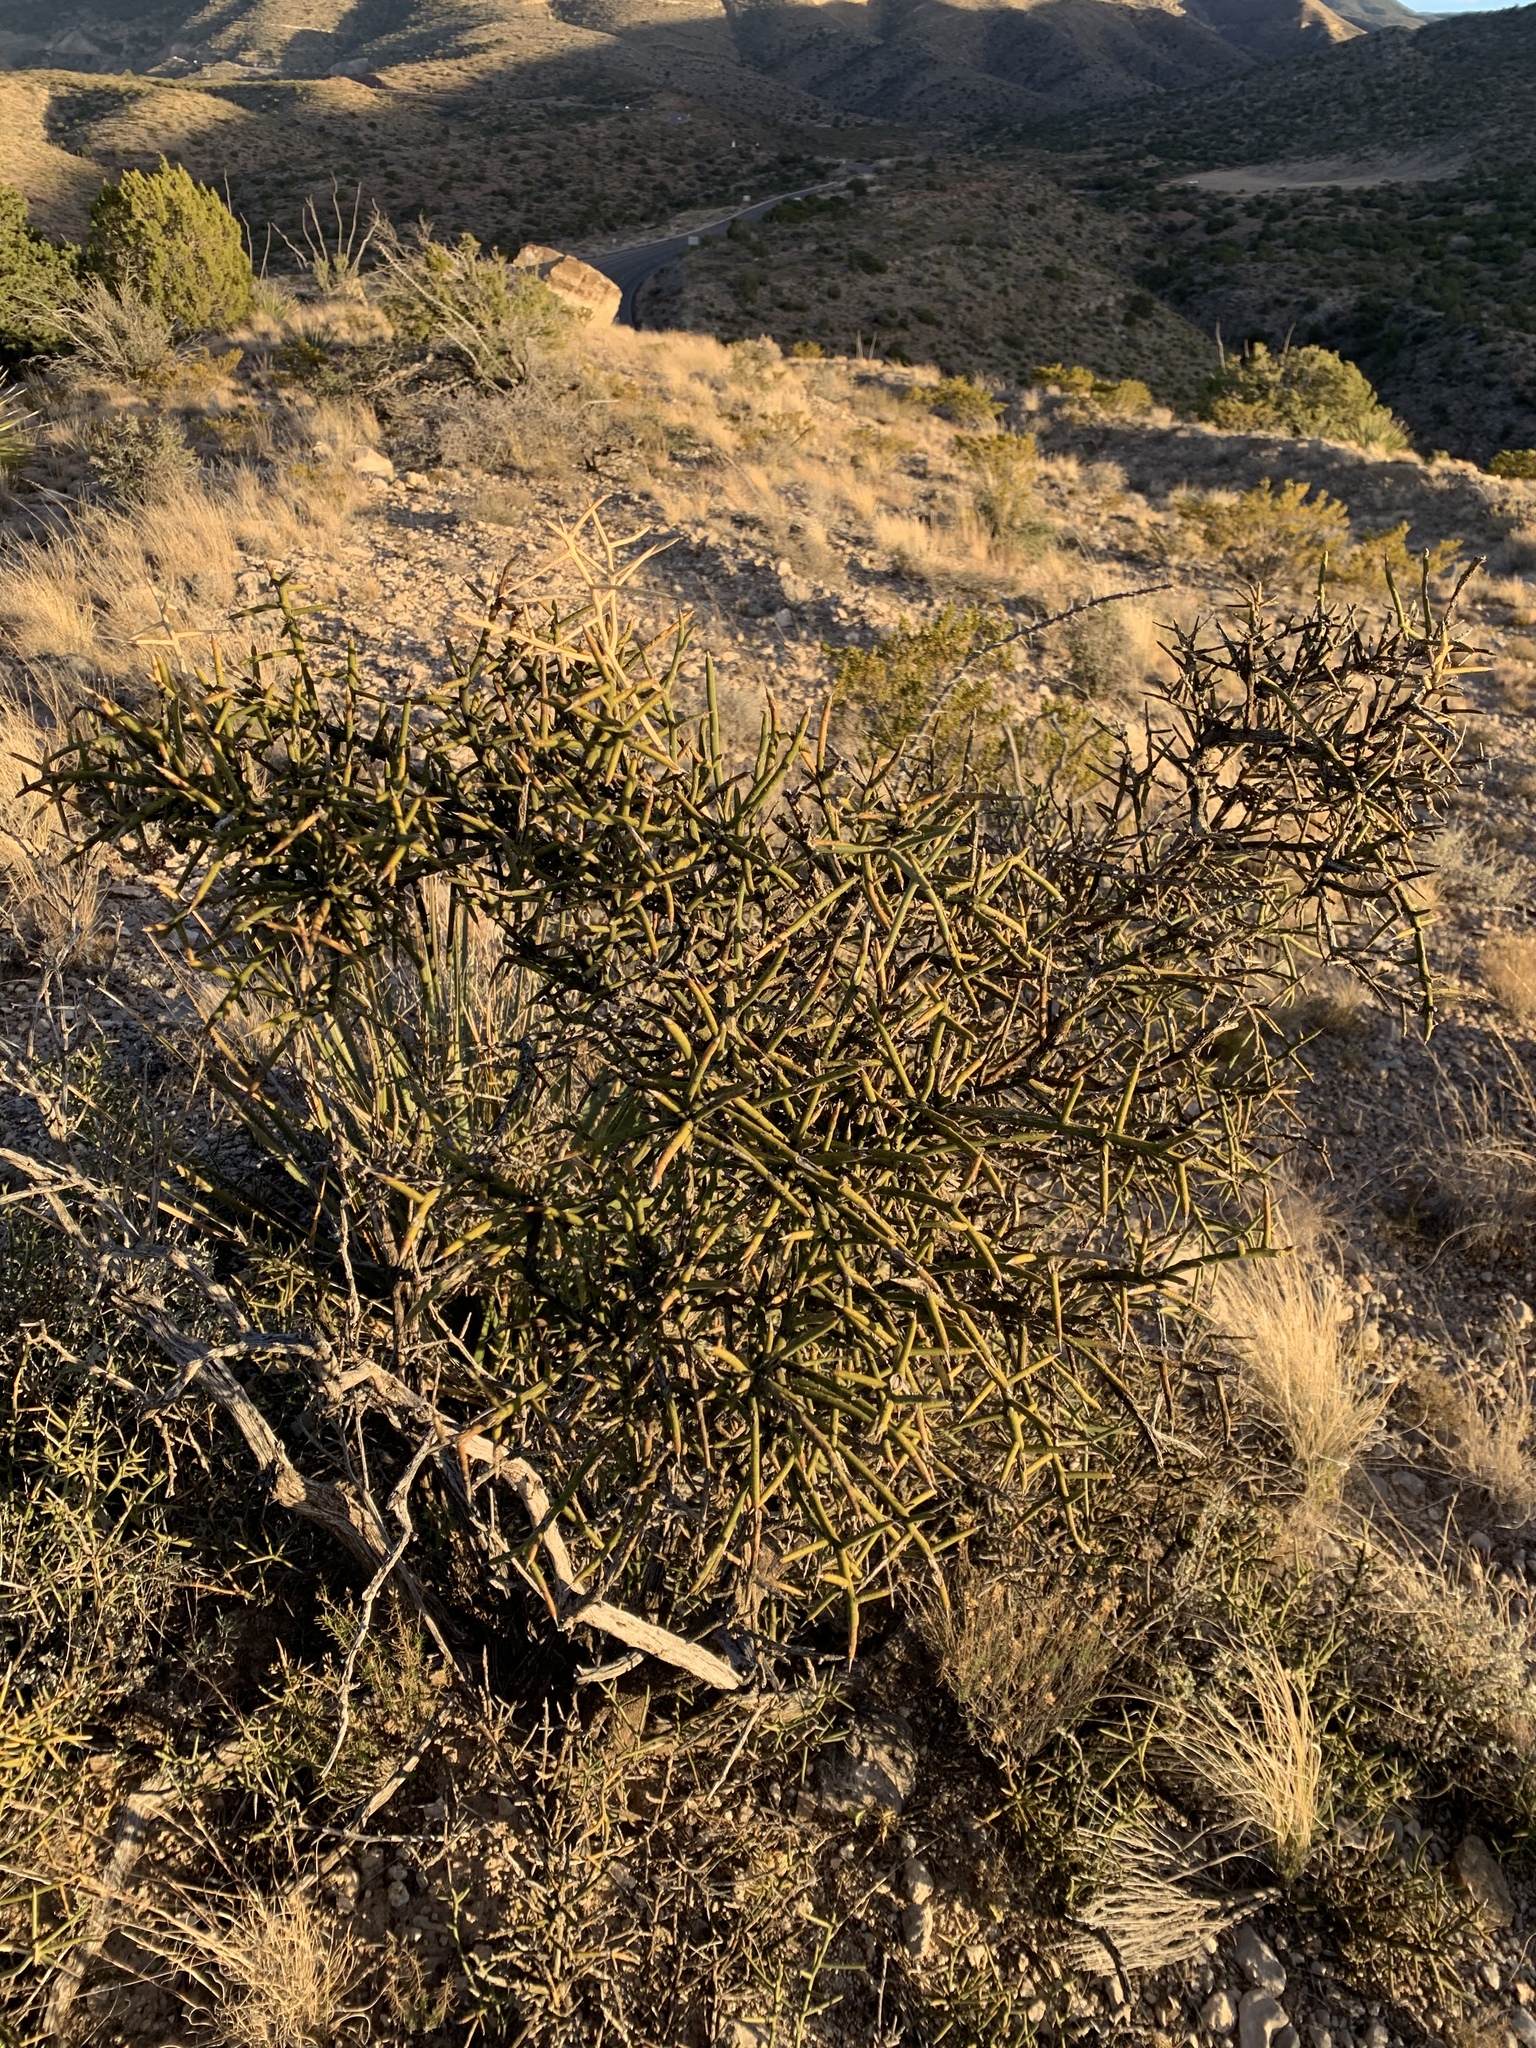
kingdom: Plantae
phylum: Tracheophyta
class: Magnoliopsida
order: Brassicales
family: Koeberliniaceae
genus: Koeberlinia
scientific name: Koeberlinia spinosa
